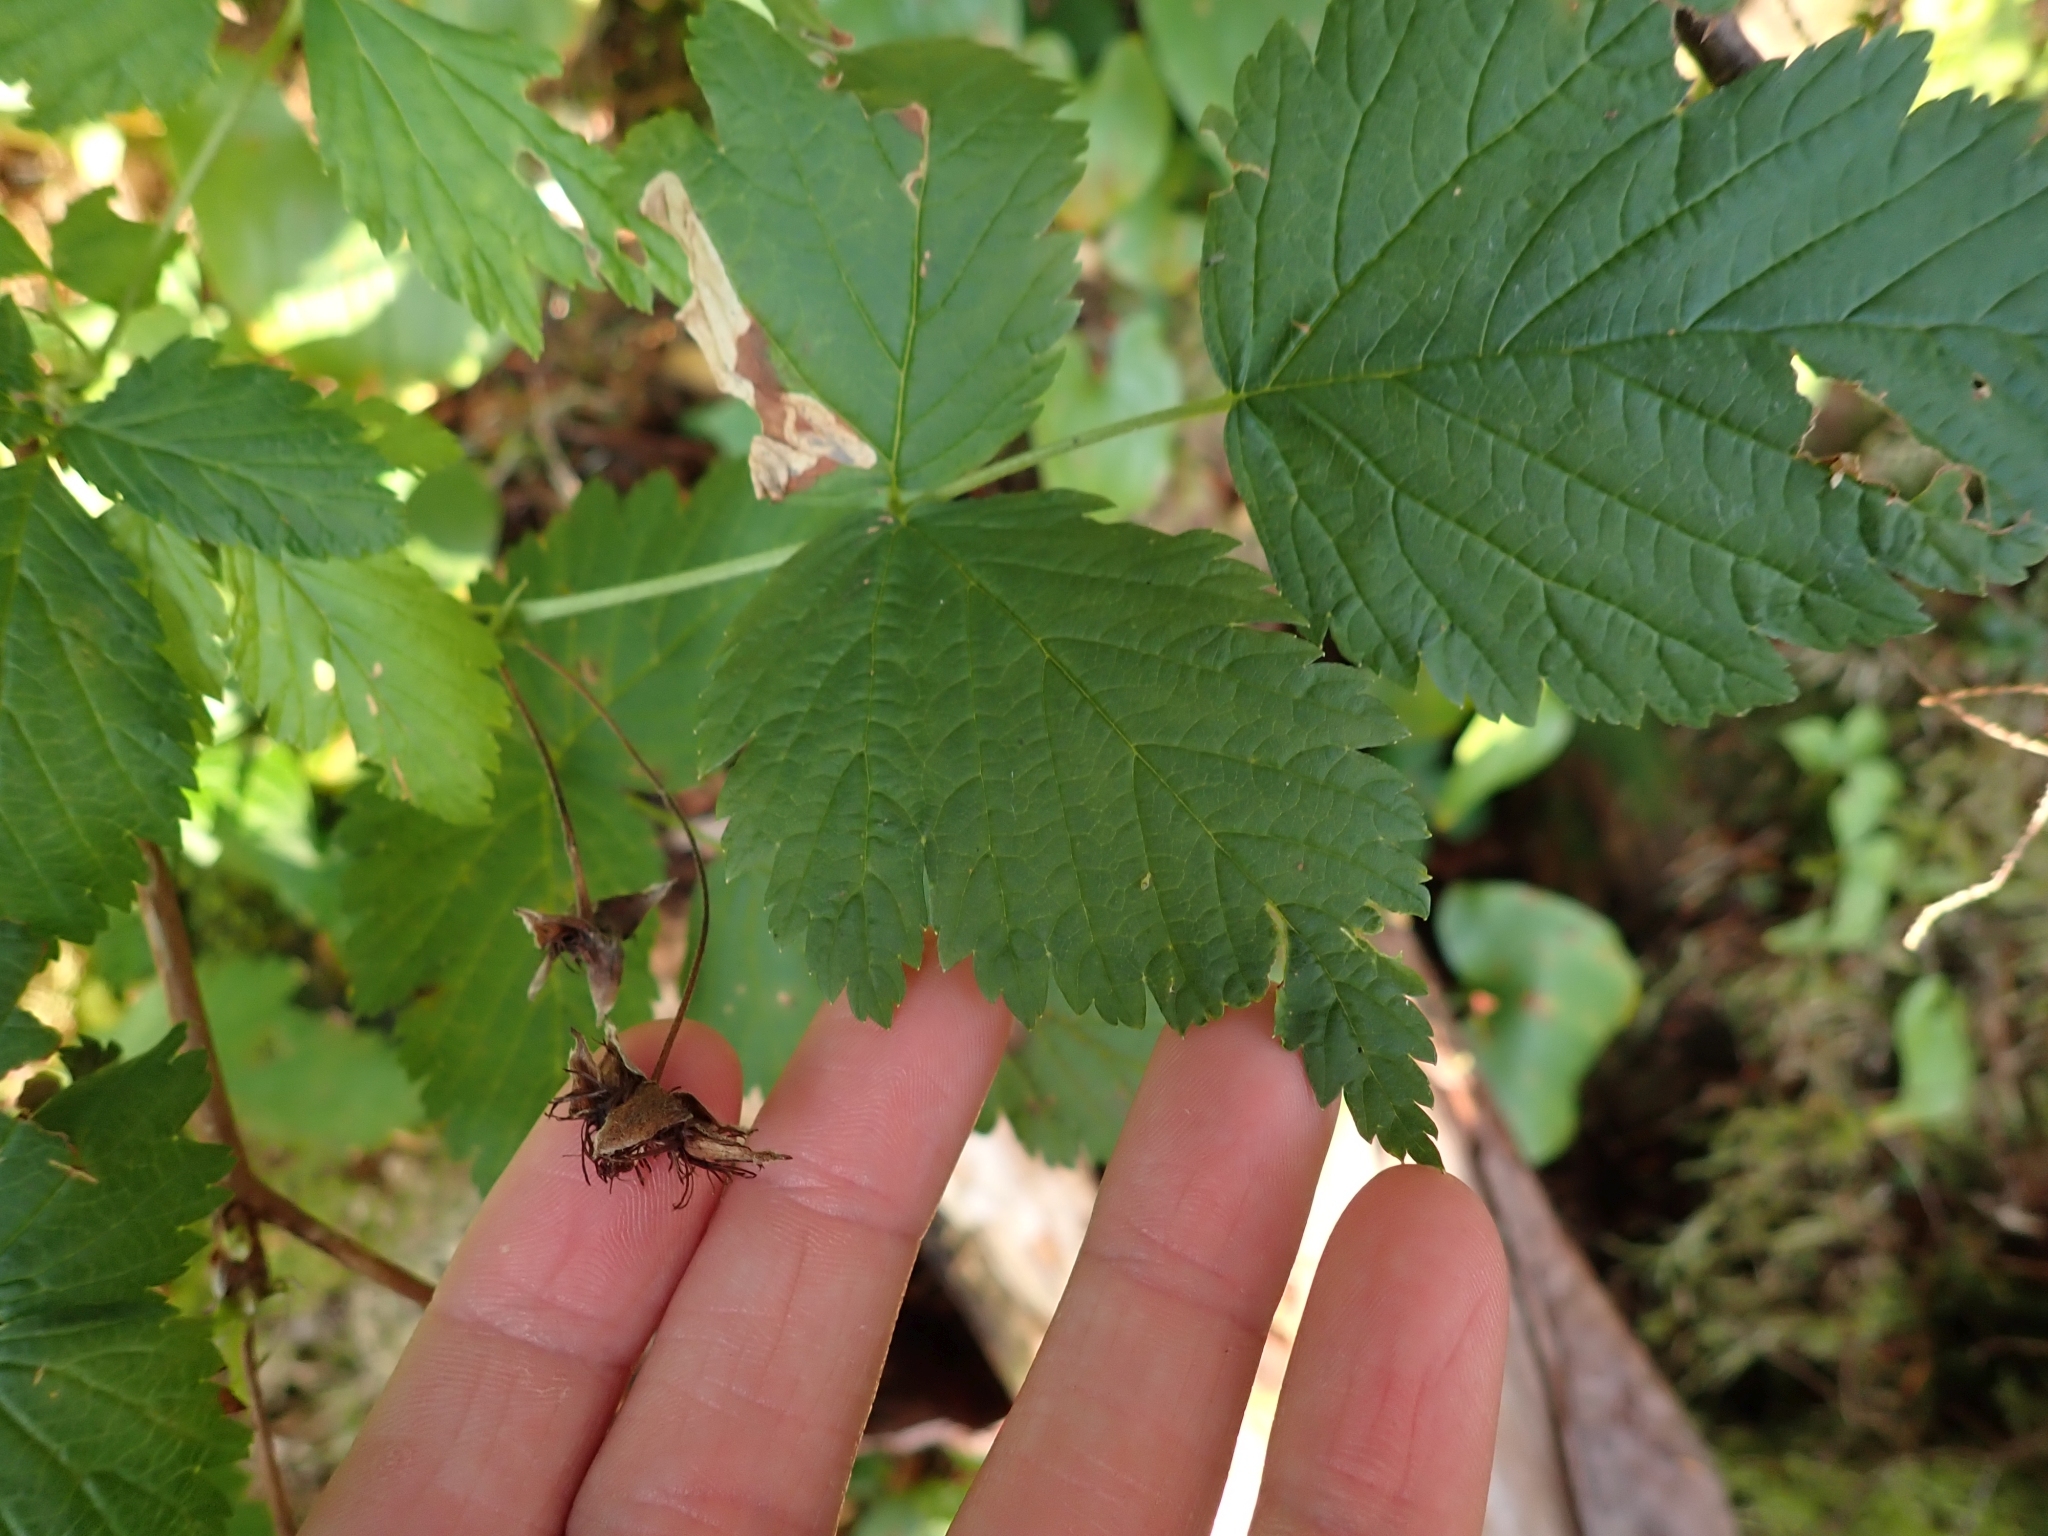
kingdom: Plantae
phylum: Tracheophyta
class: Magnoliopsida
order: Rosales
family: Rosaceae
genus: Rubus
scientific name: Rubus spectabilis
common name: Salmonberry
